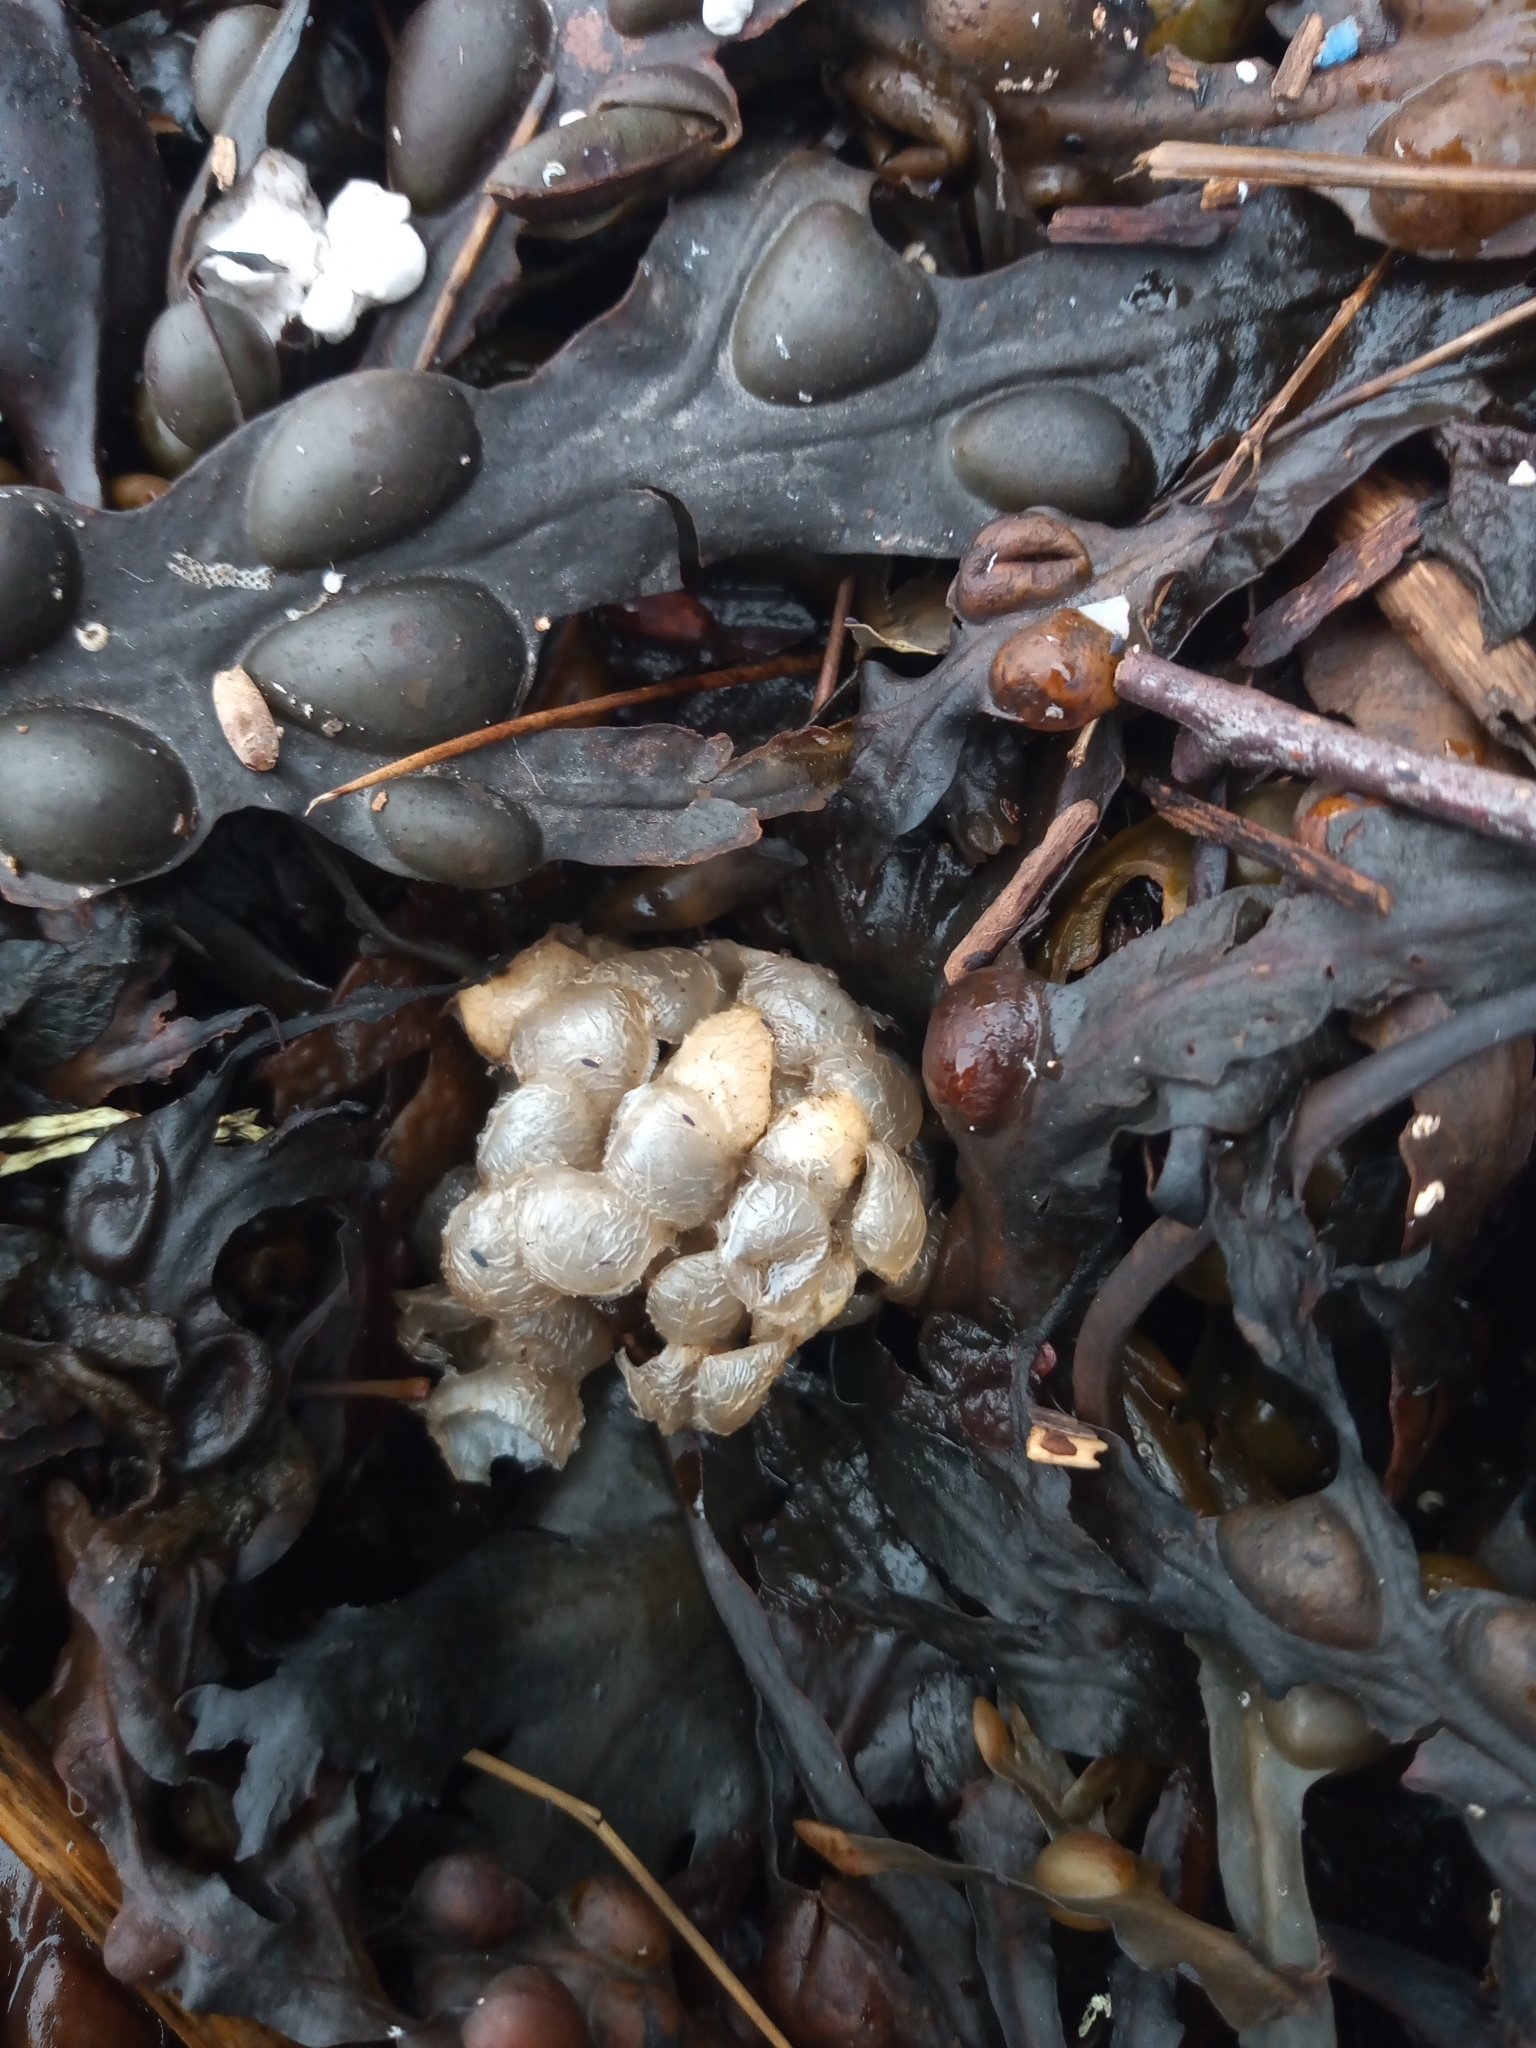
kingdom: Animalia
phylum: Mollusca
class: Gastropoda
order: Neogastropoda
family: Buccinidae
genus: Buccinum
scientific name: Buccinum undatum
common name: Common whelk
